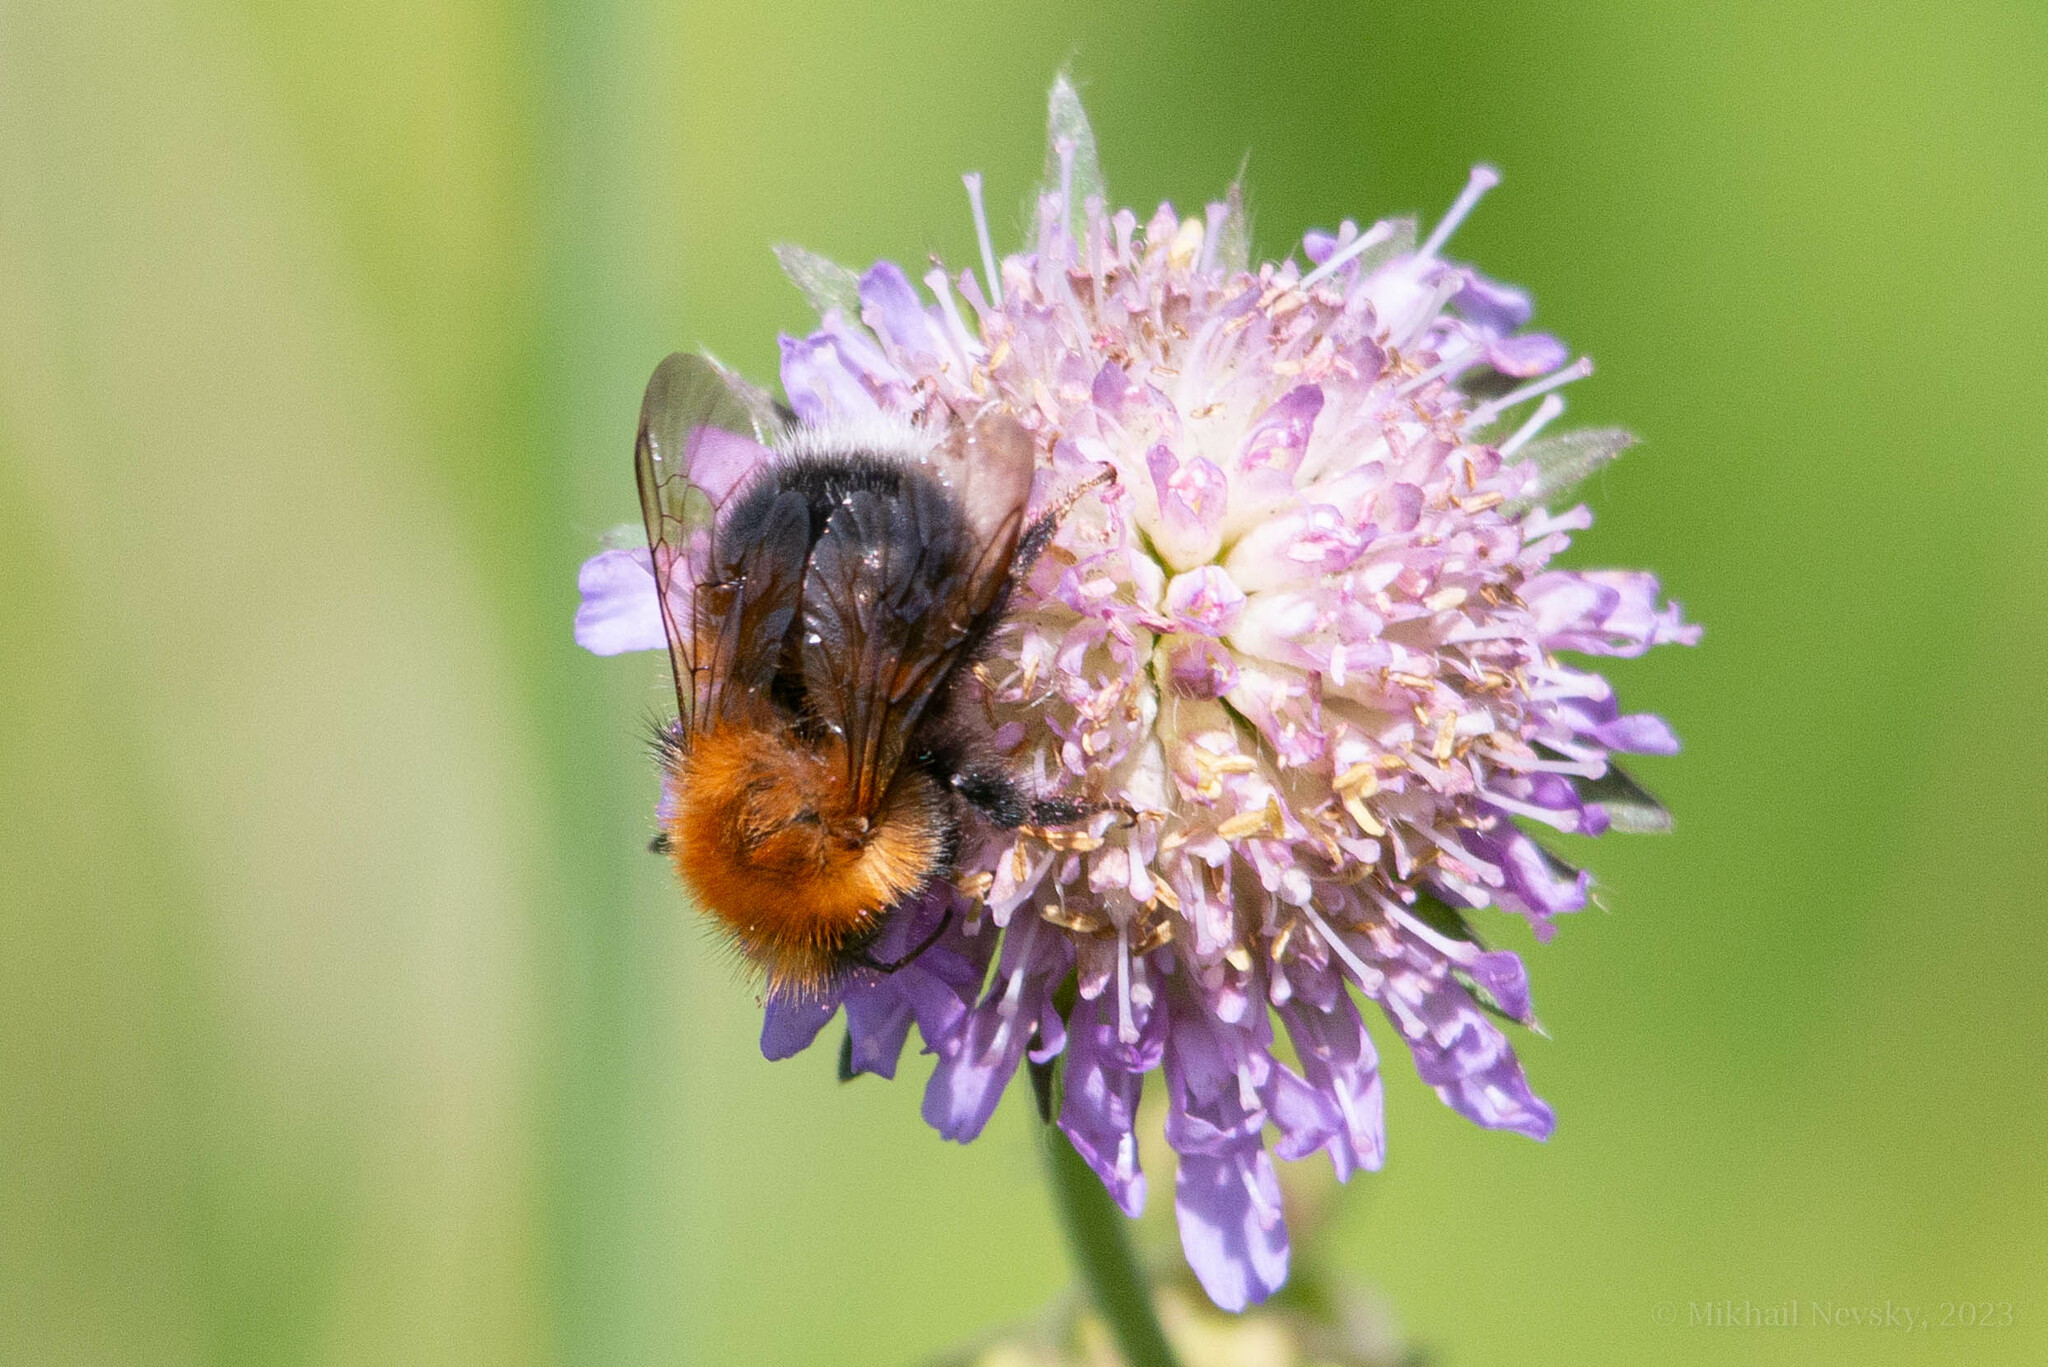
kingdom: Animalia
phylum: Arthropoda
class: Insecta
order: Hymenoptera
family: Apidae
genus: Bombus
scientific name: Bombus hypnorum
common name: New garden bumblebee
